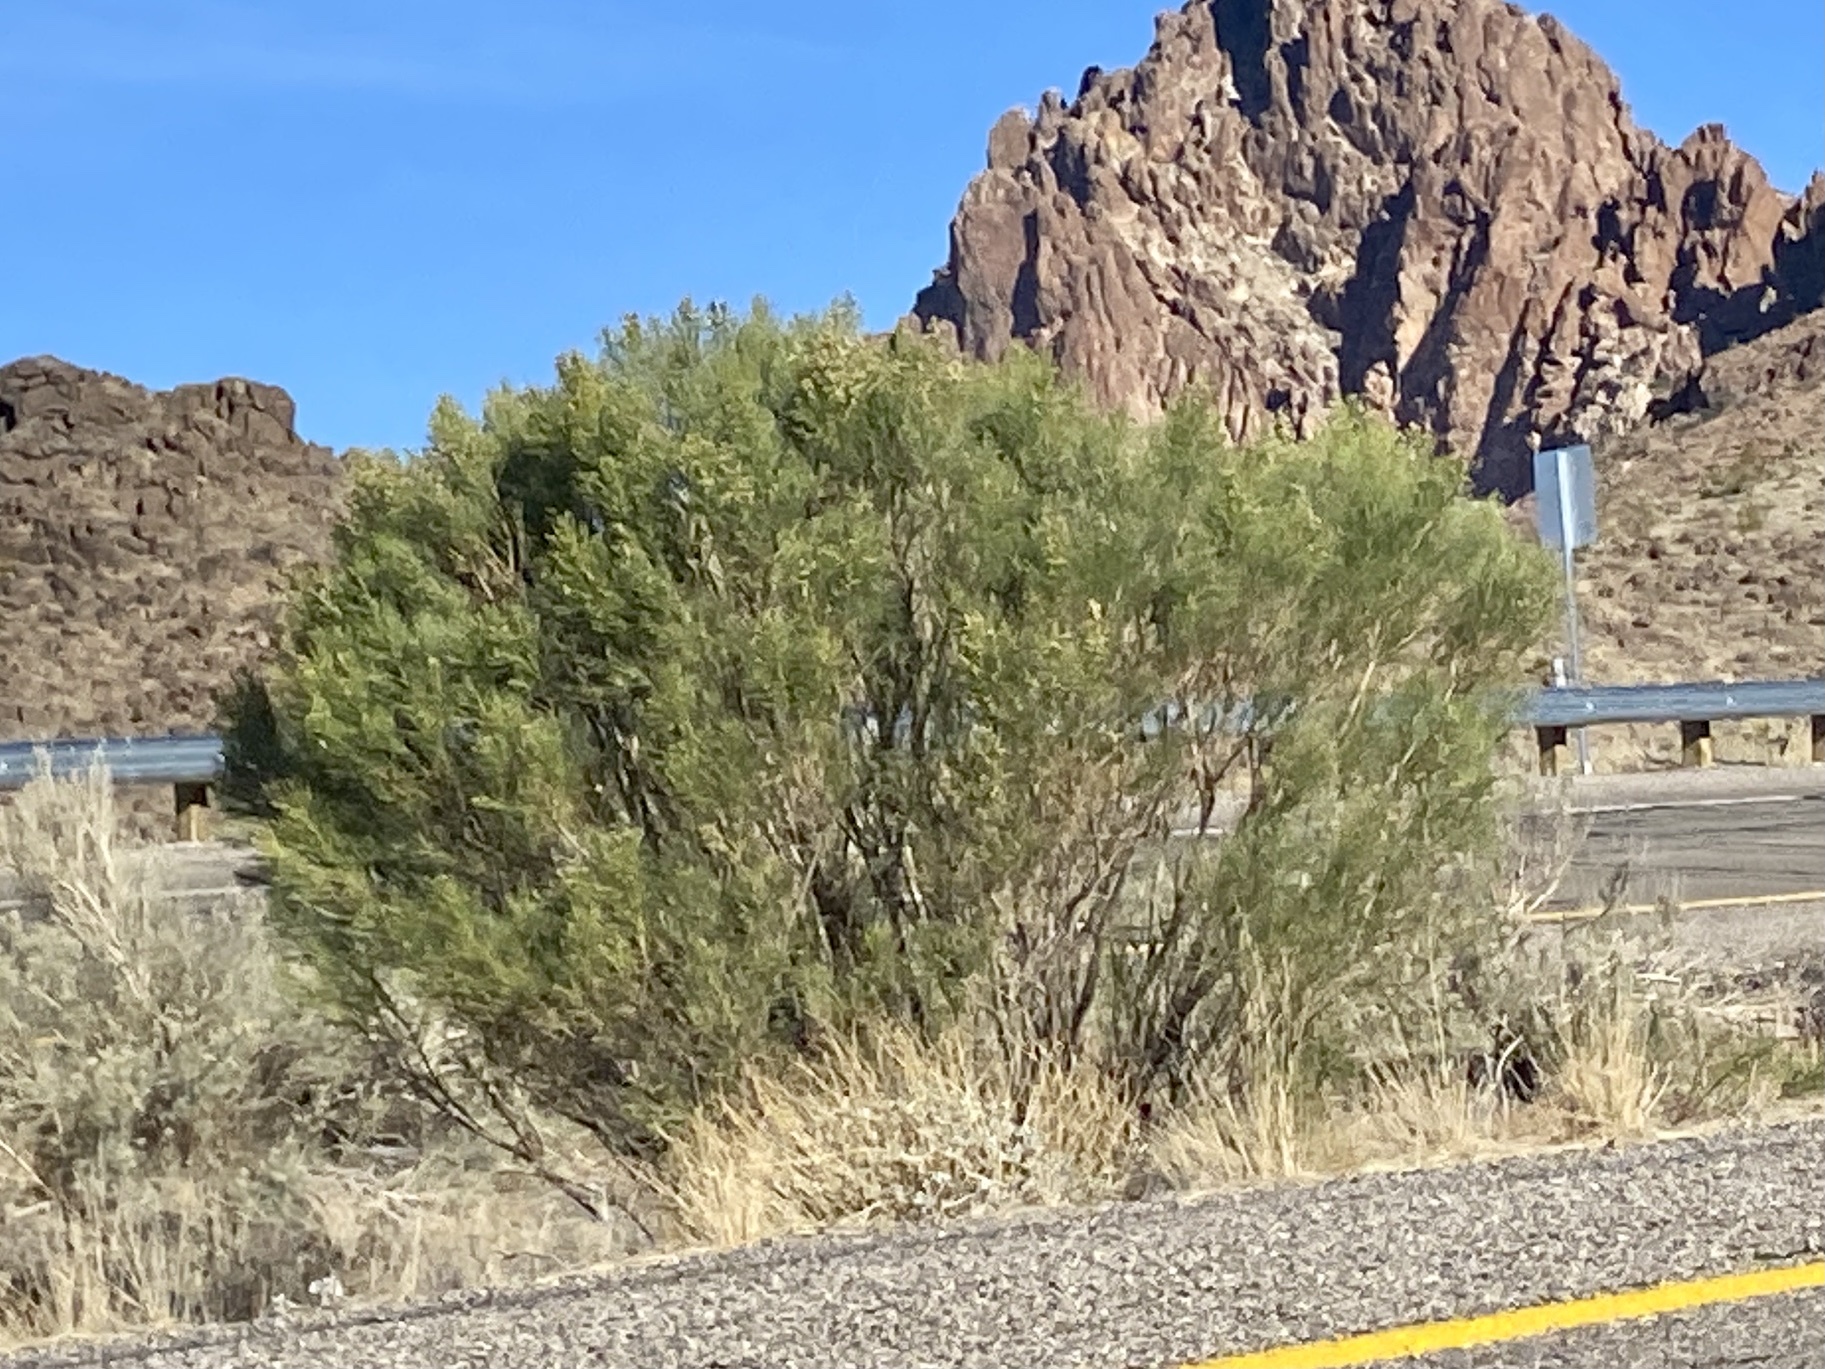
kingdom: Plantae
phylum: Tracheophyta
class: Magnoliopsida
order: Asterales
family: Asteraceae
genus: Baccharis
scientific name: Baccharis sarothroides
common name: Desert-broom
